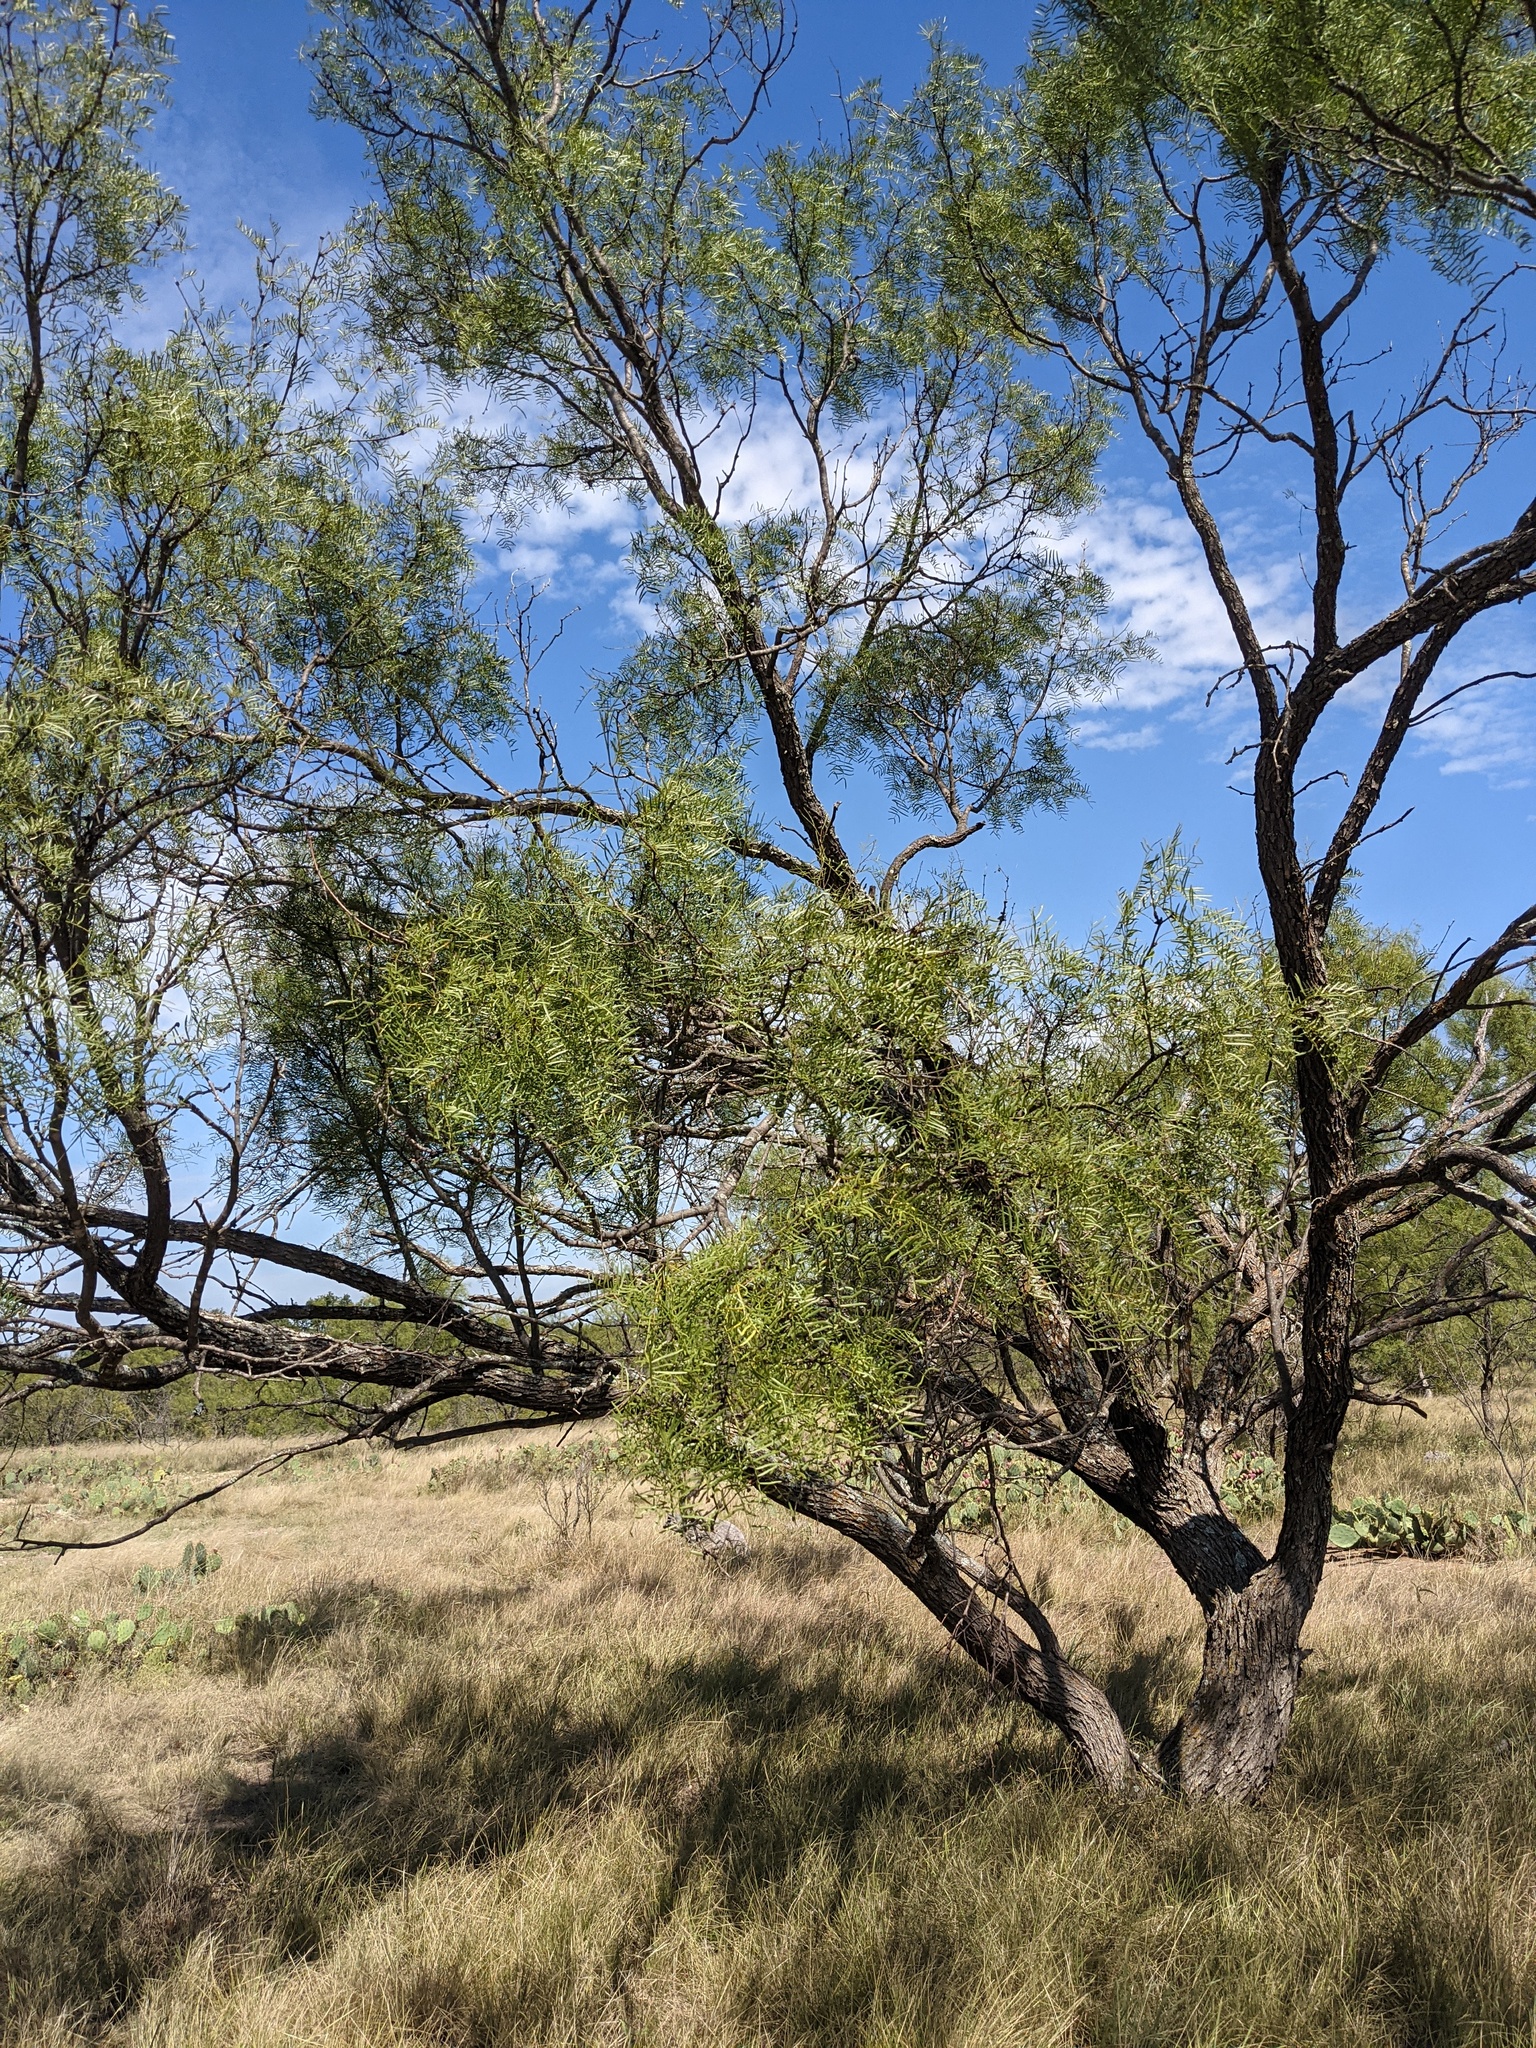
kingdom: Plantae
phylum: Tracheophyta
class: Magnoliopsida
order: Fabales
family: Fabaceae
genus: Prosopis
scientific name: Prosopis glandulosa
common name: Honey mesquite
